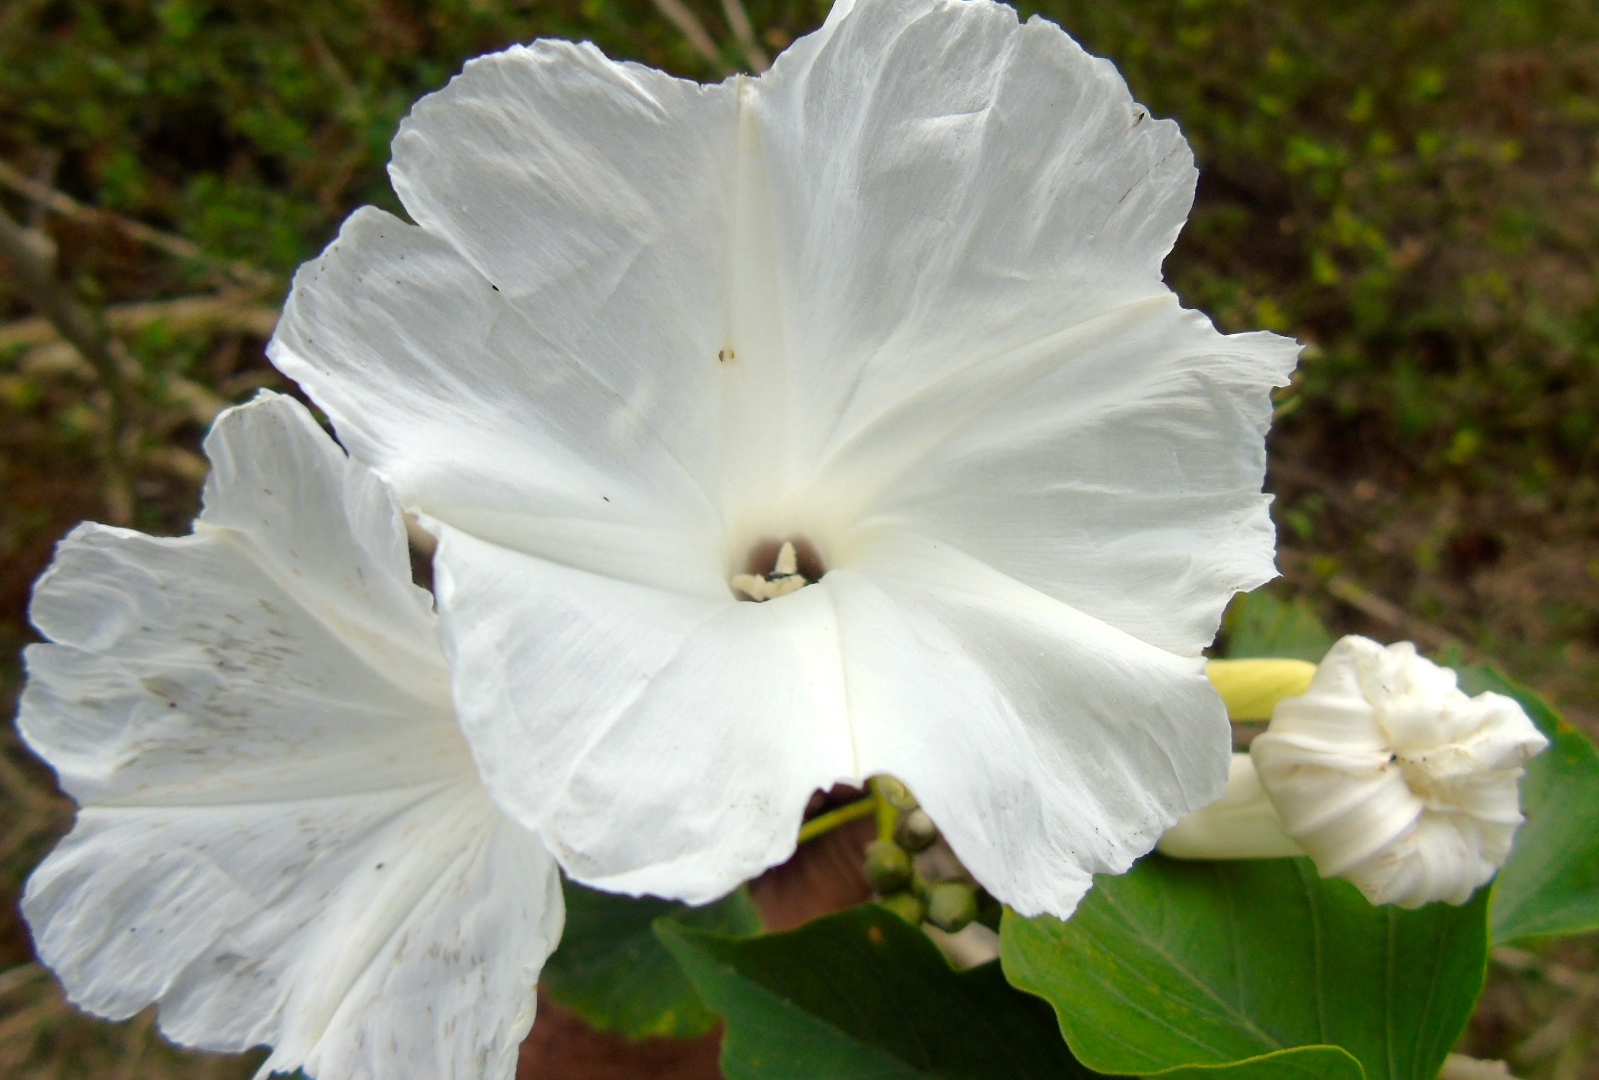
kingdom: Plantae
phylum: Tracheophyta
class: Magnoliopsida
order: Solanales
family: Convolvulaceae
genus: Ipomoea
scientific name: Ipomoea carnea
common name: Morning-glory
